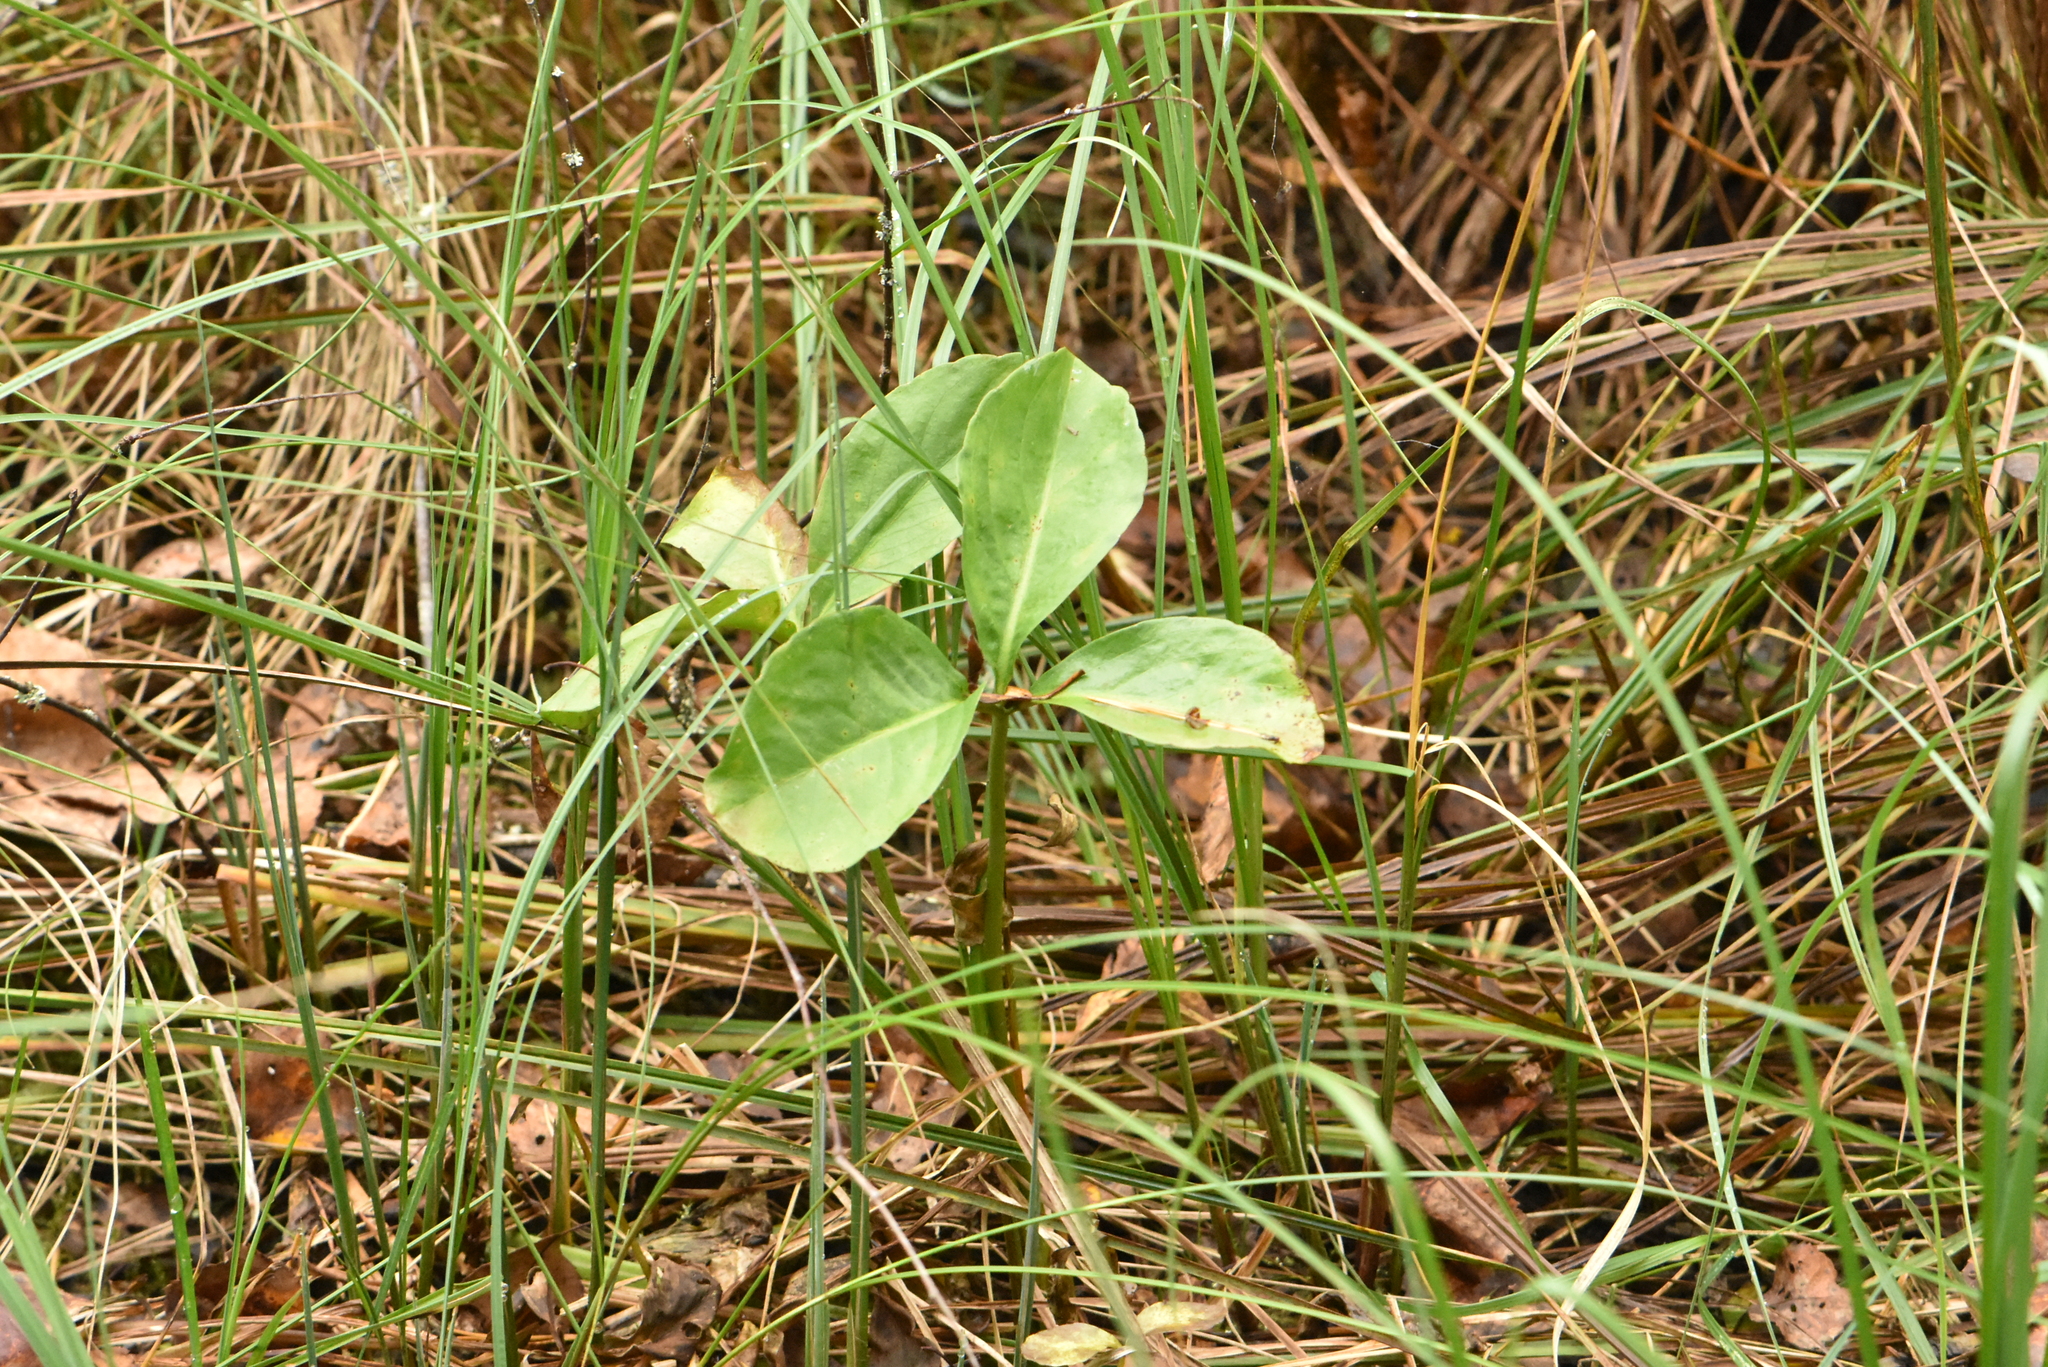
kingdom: Plantae
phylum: Tracheophyta
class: Magnoliopsida
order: Asterales
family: Menyanthaceae
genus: Menyanthes
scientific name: Menyanthes trifoliata
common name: Bogbean
